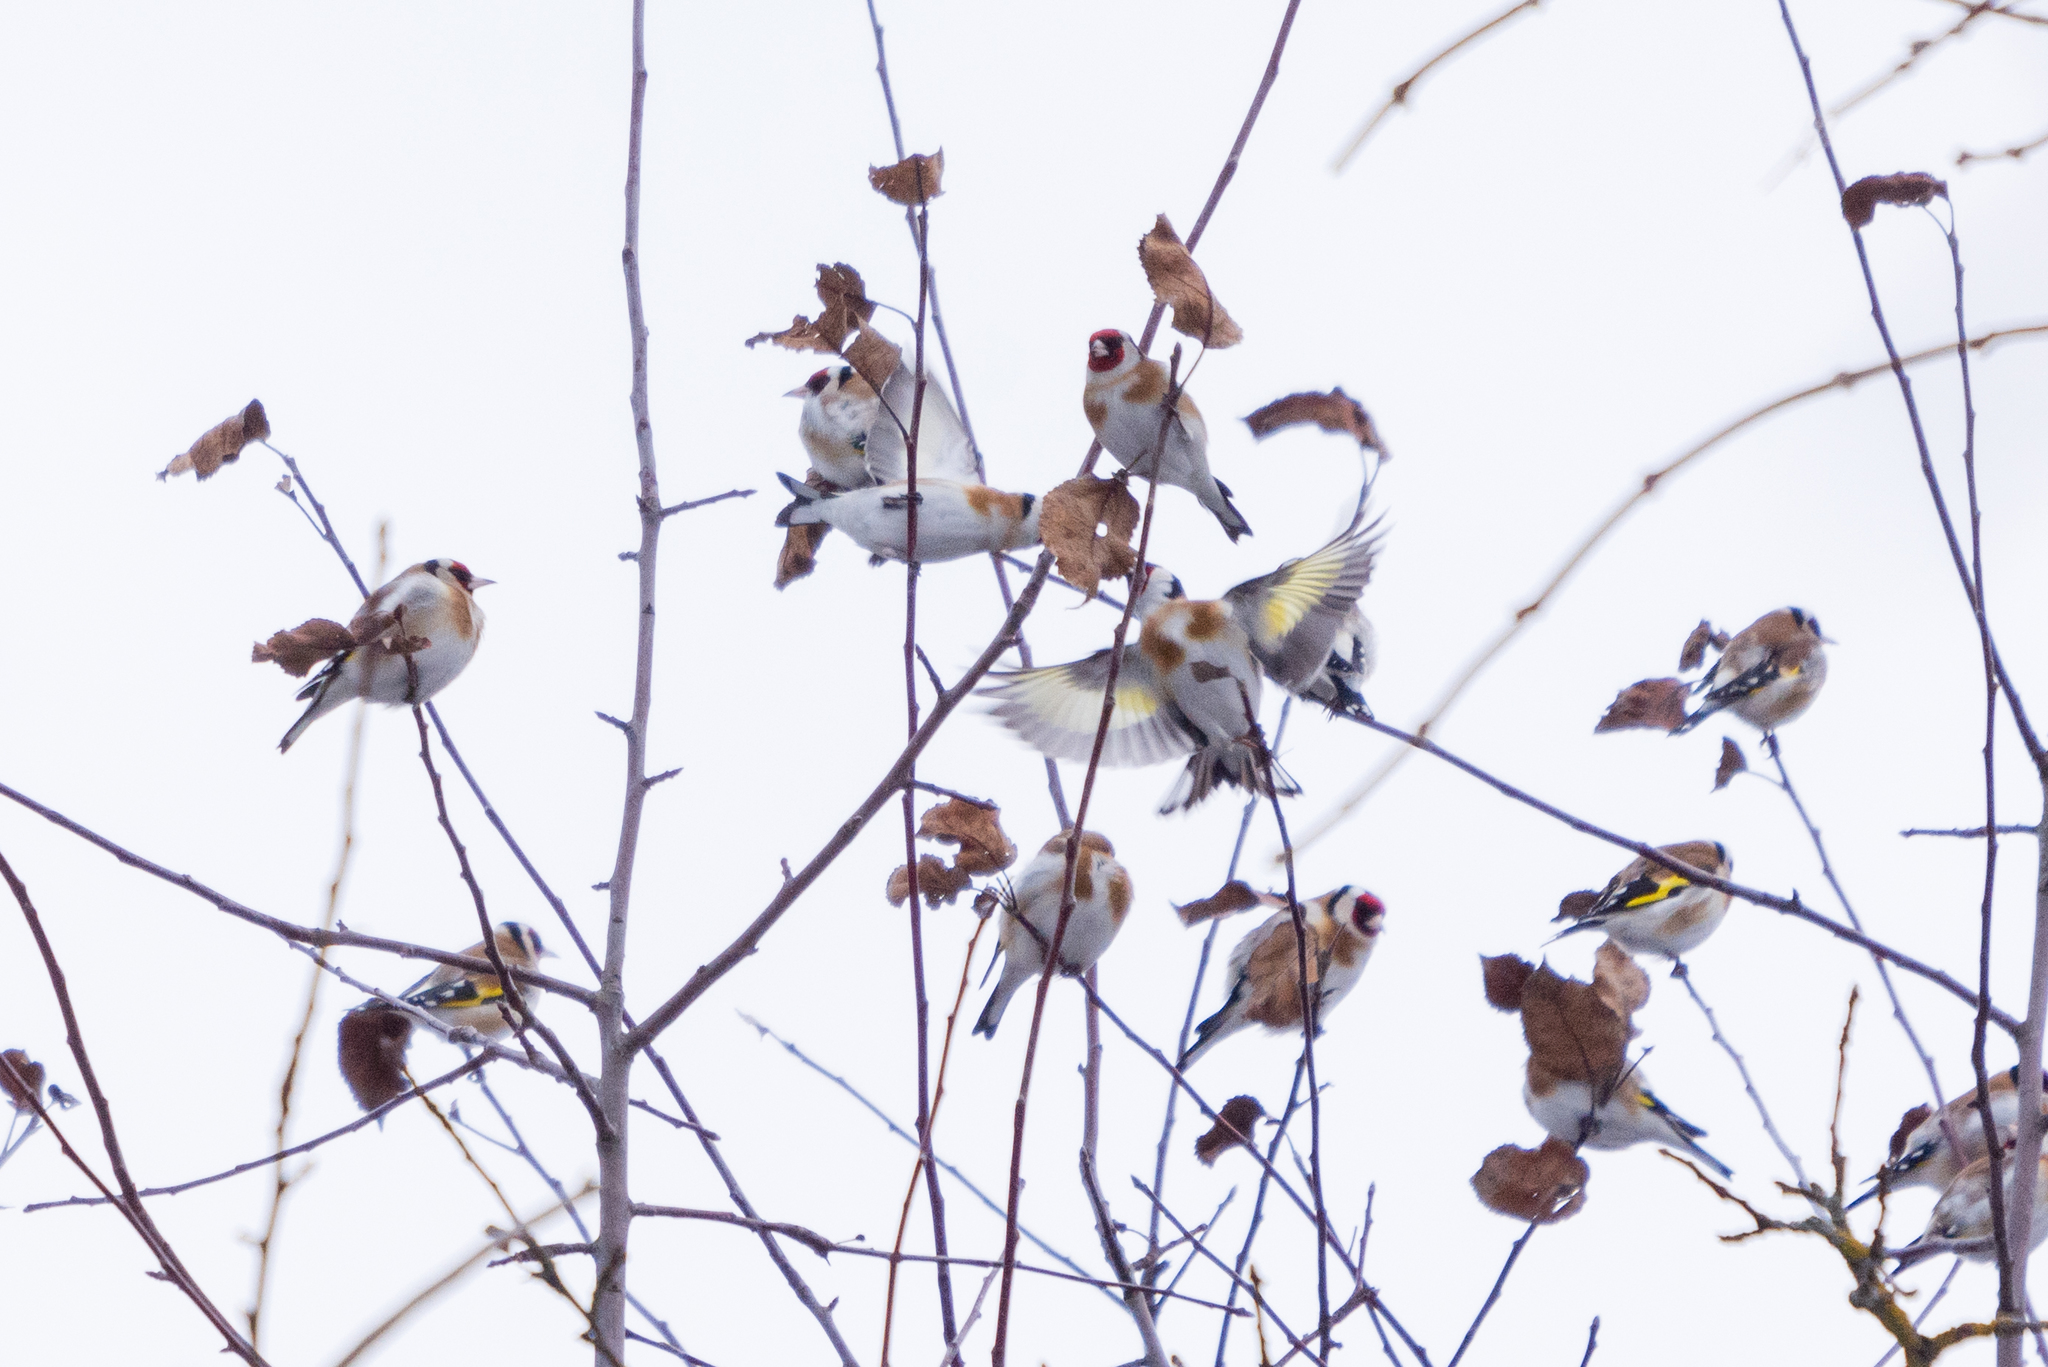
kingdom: Animalia
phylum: Chordata
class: Aves
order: Passeriformes
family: Fringillidae
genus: Carduelis
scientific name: Carduelis carduelis
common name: European goldfinch
